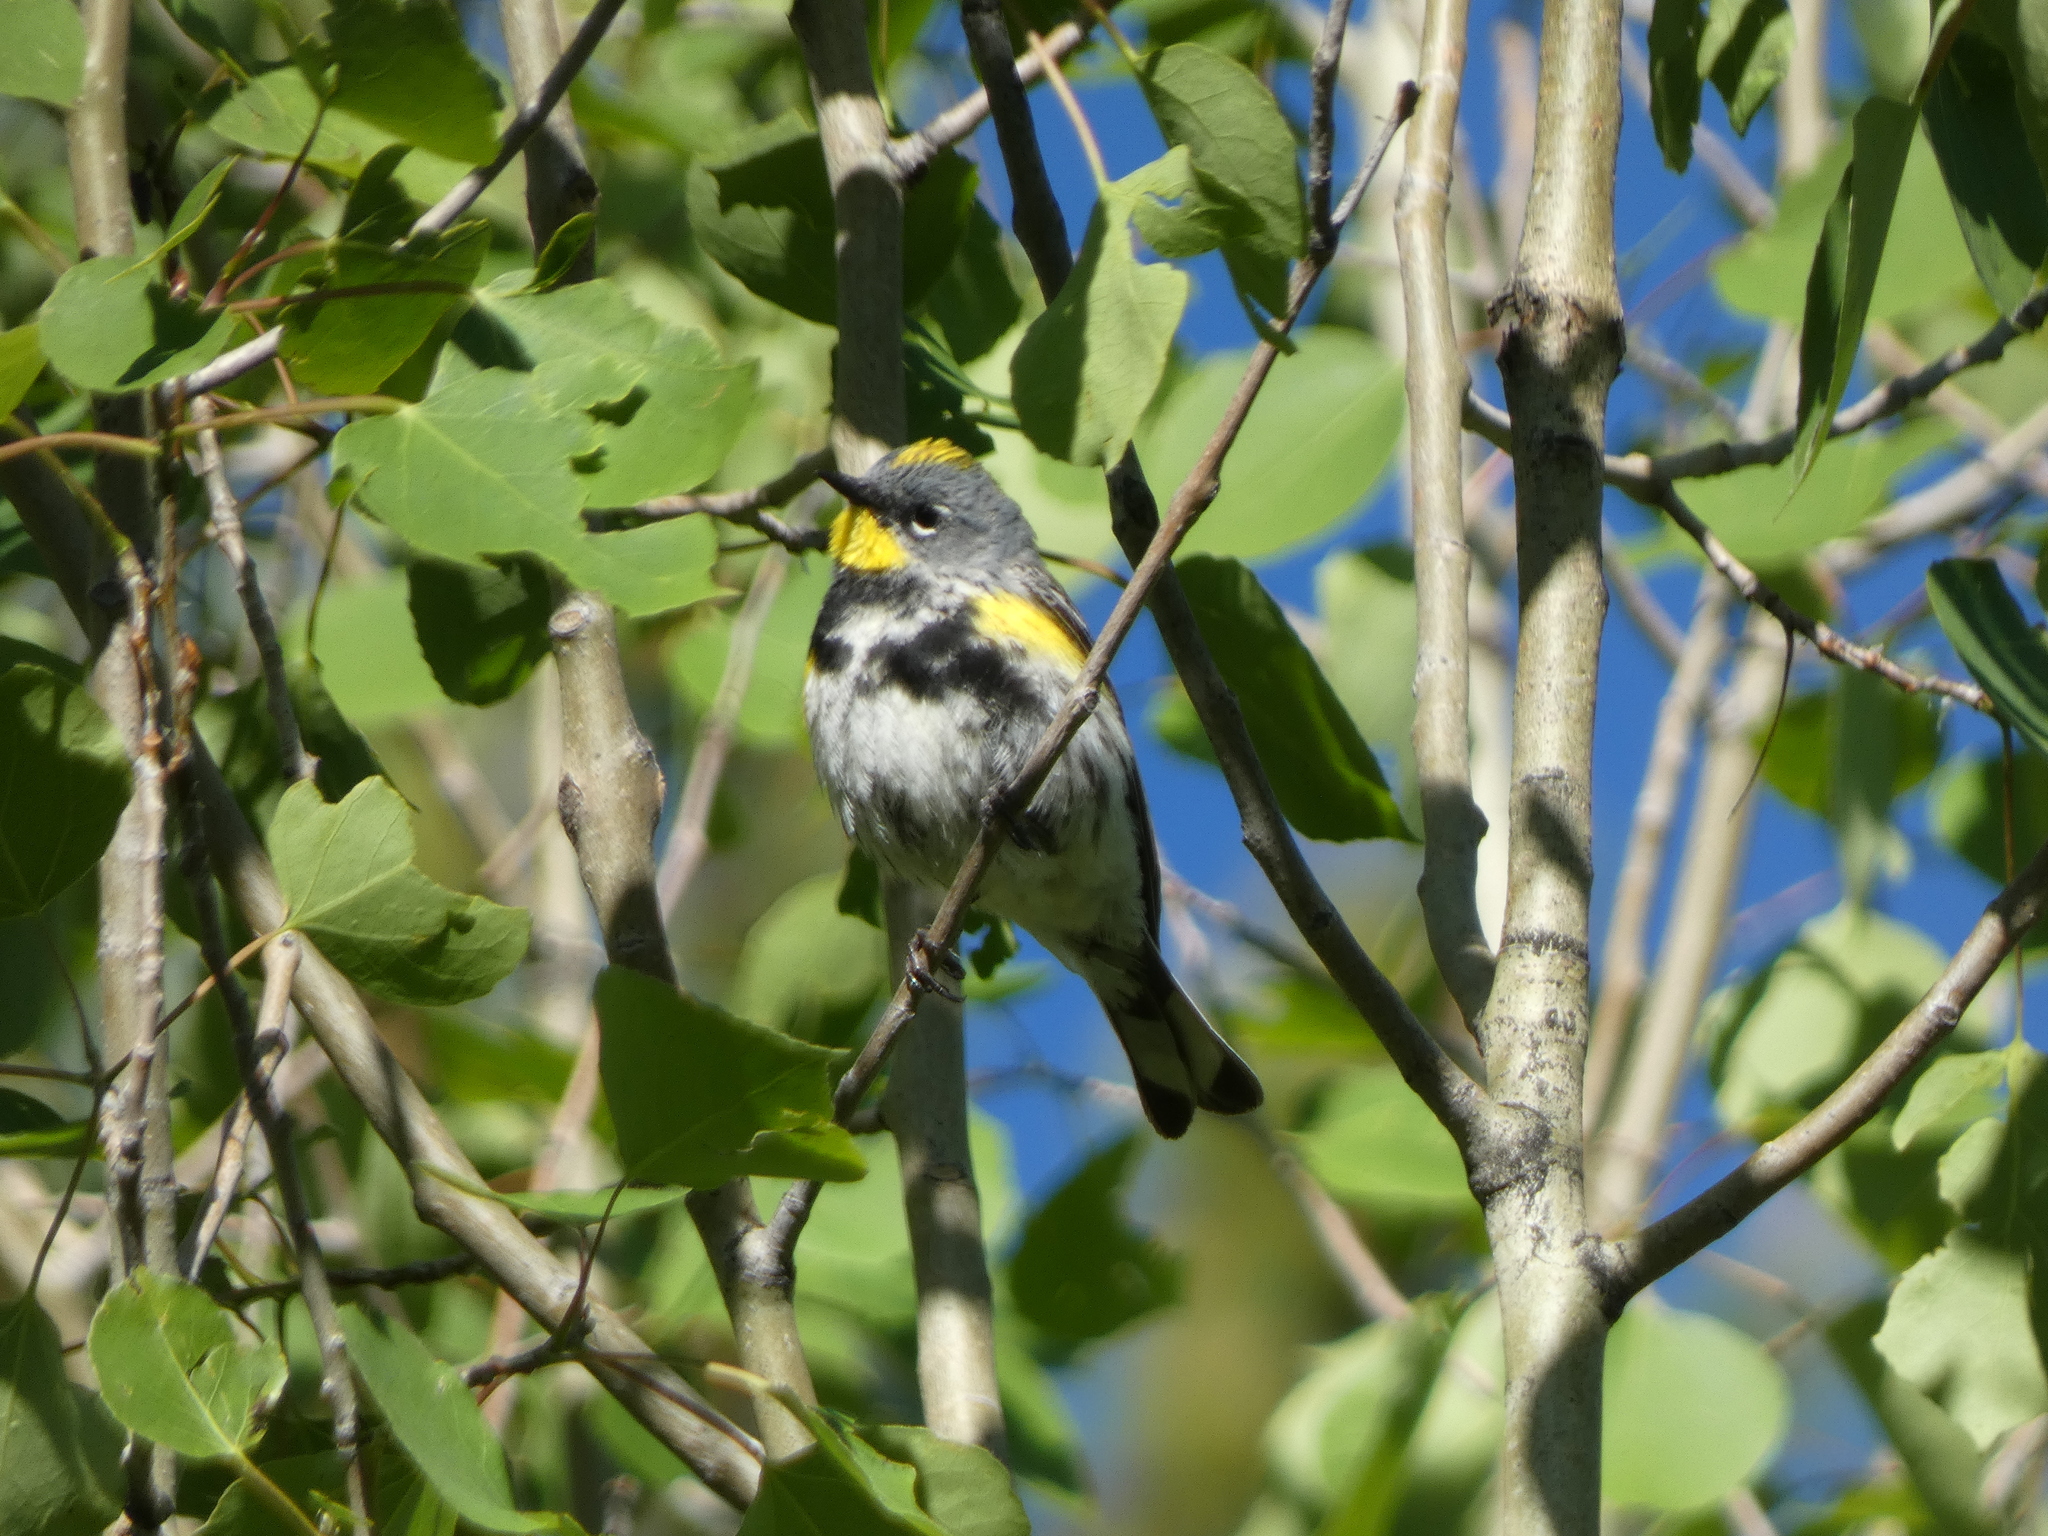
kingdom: Animalia
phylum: Chordata
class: Aves
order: Passeriformes
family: Parulidae
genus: Setophaga
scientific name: Setophaga auduboni
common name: Audubon's warbler
